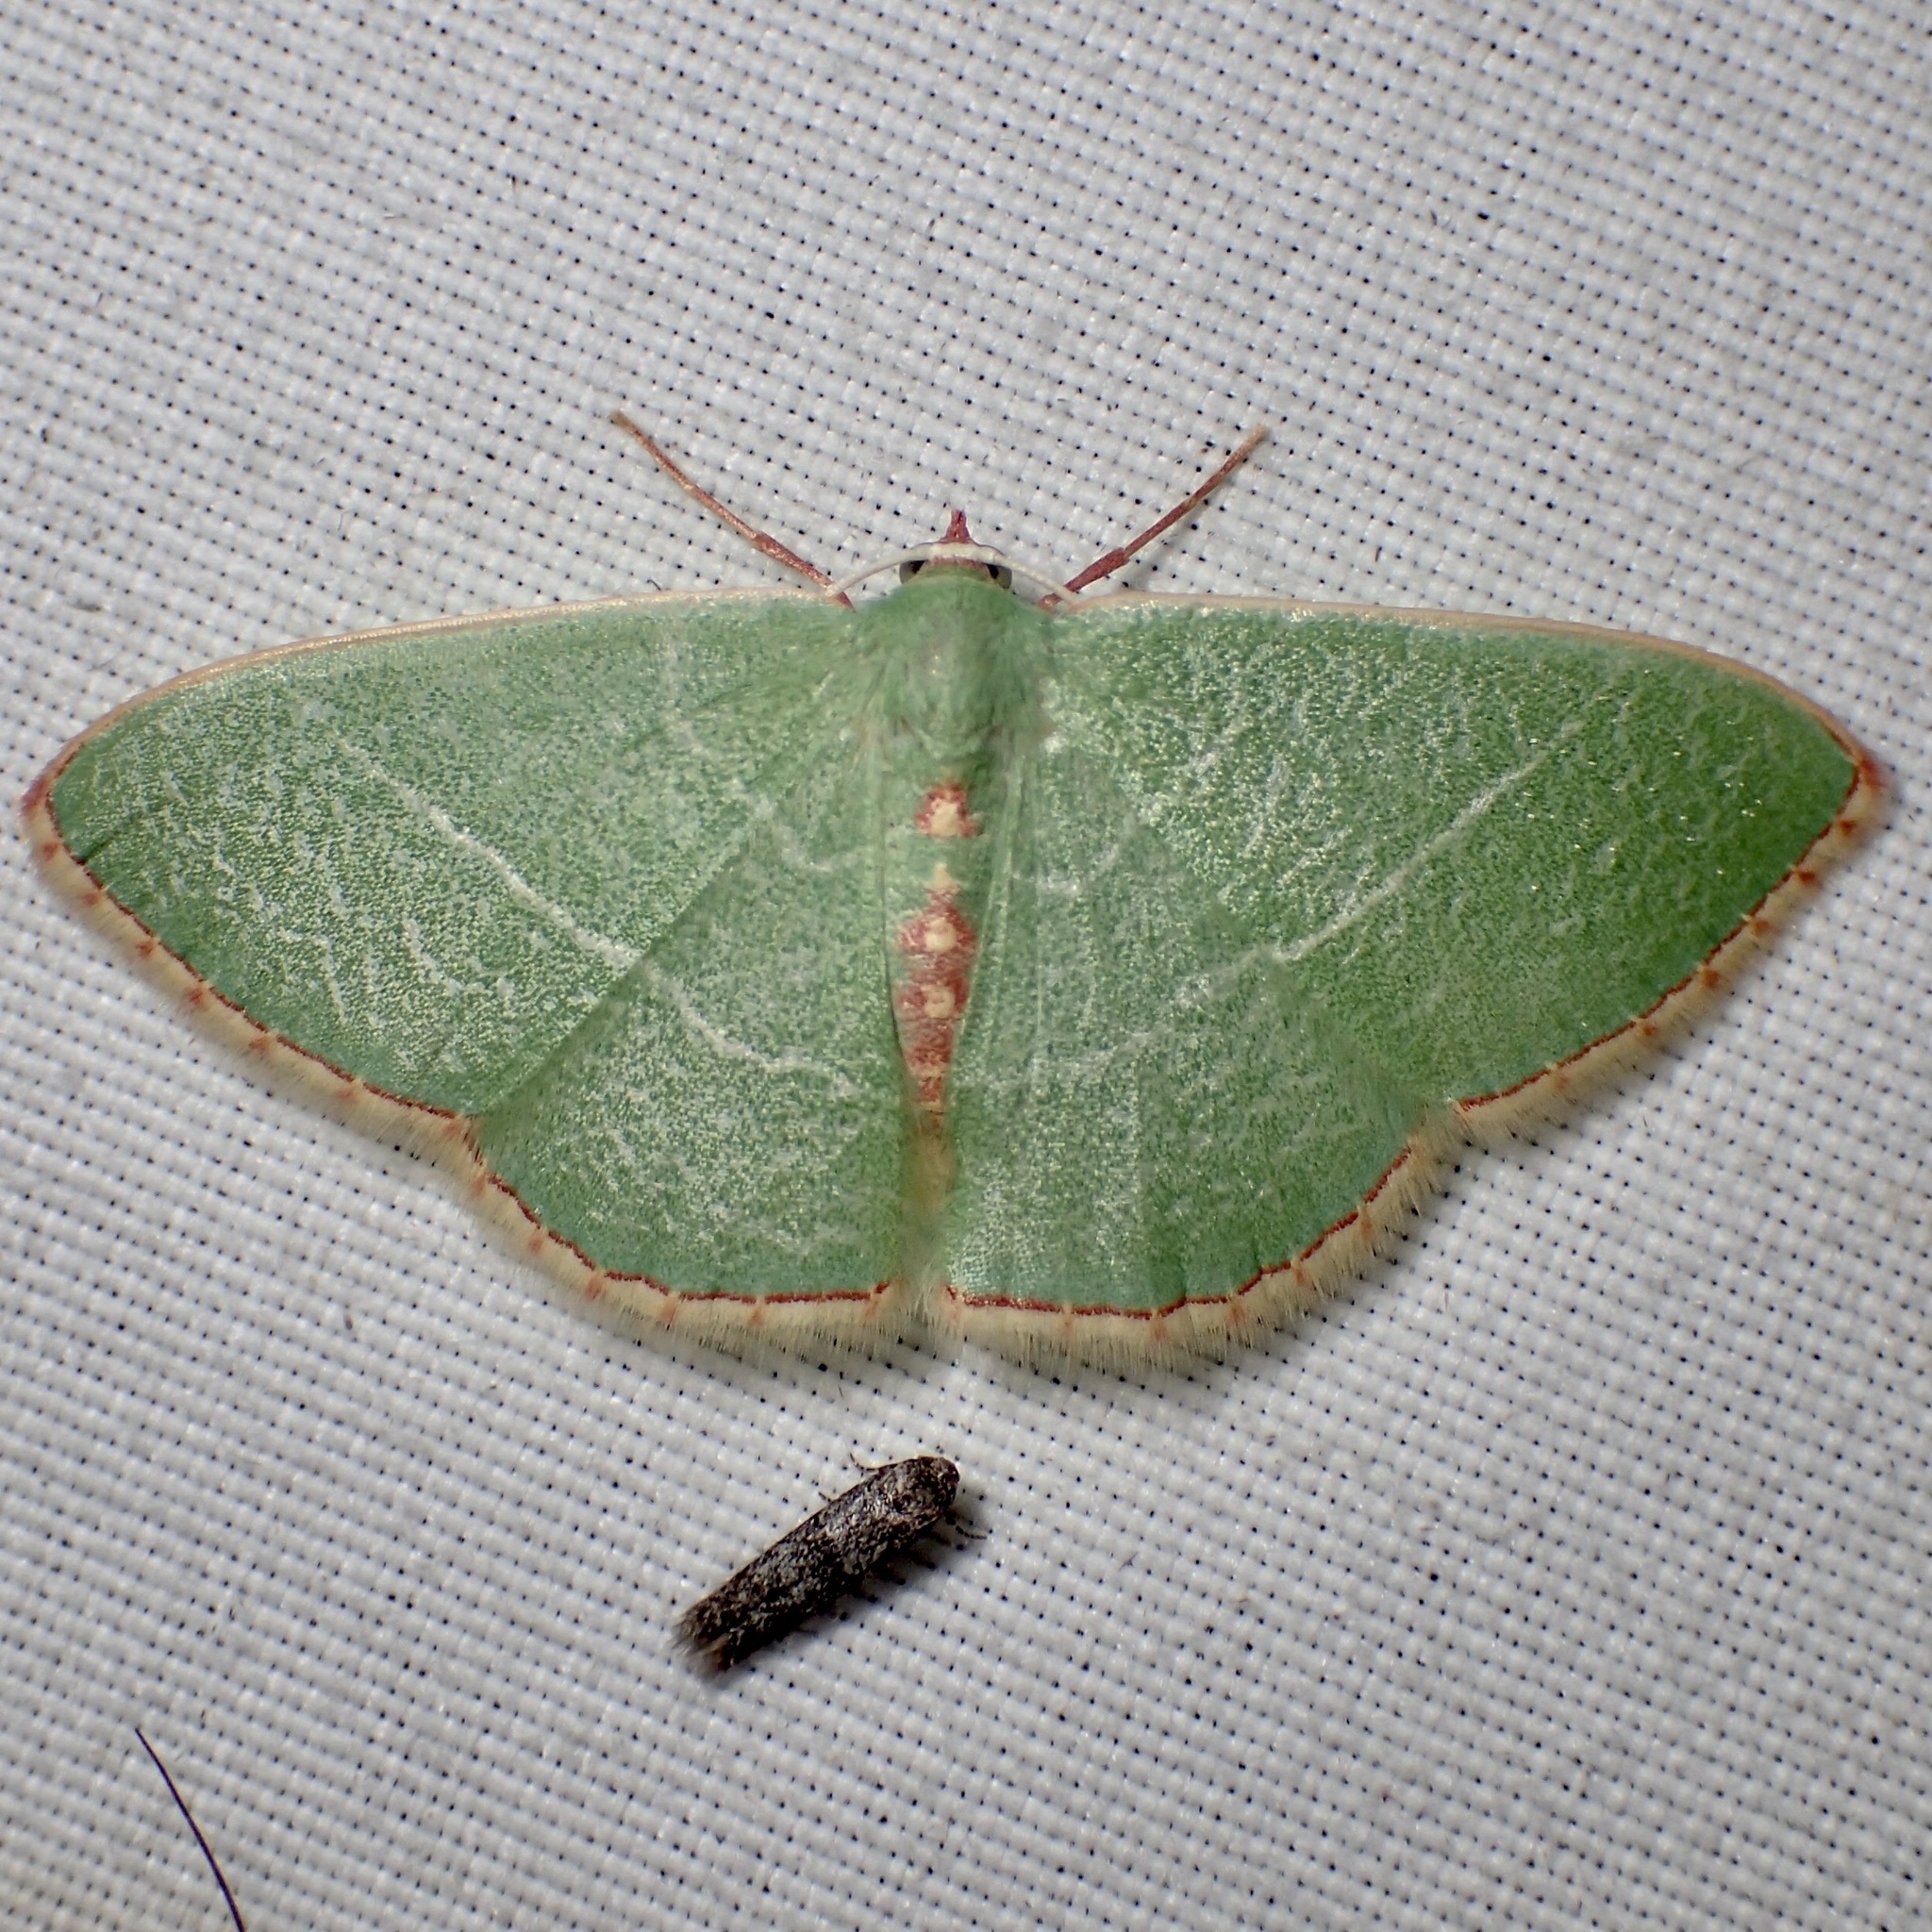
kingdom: Animalia
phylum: Arthropoda
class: Insecta
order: Lepidoptera
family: Geometridae
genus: Nemoria
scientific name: Nemoria festaria
